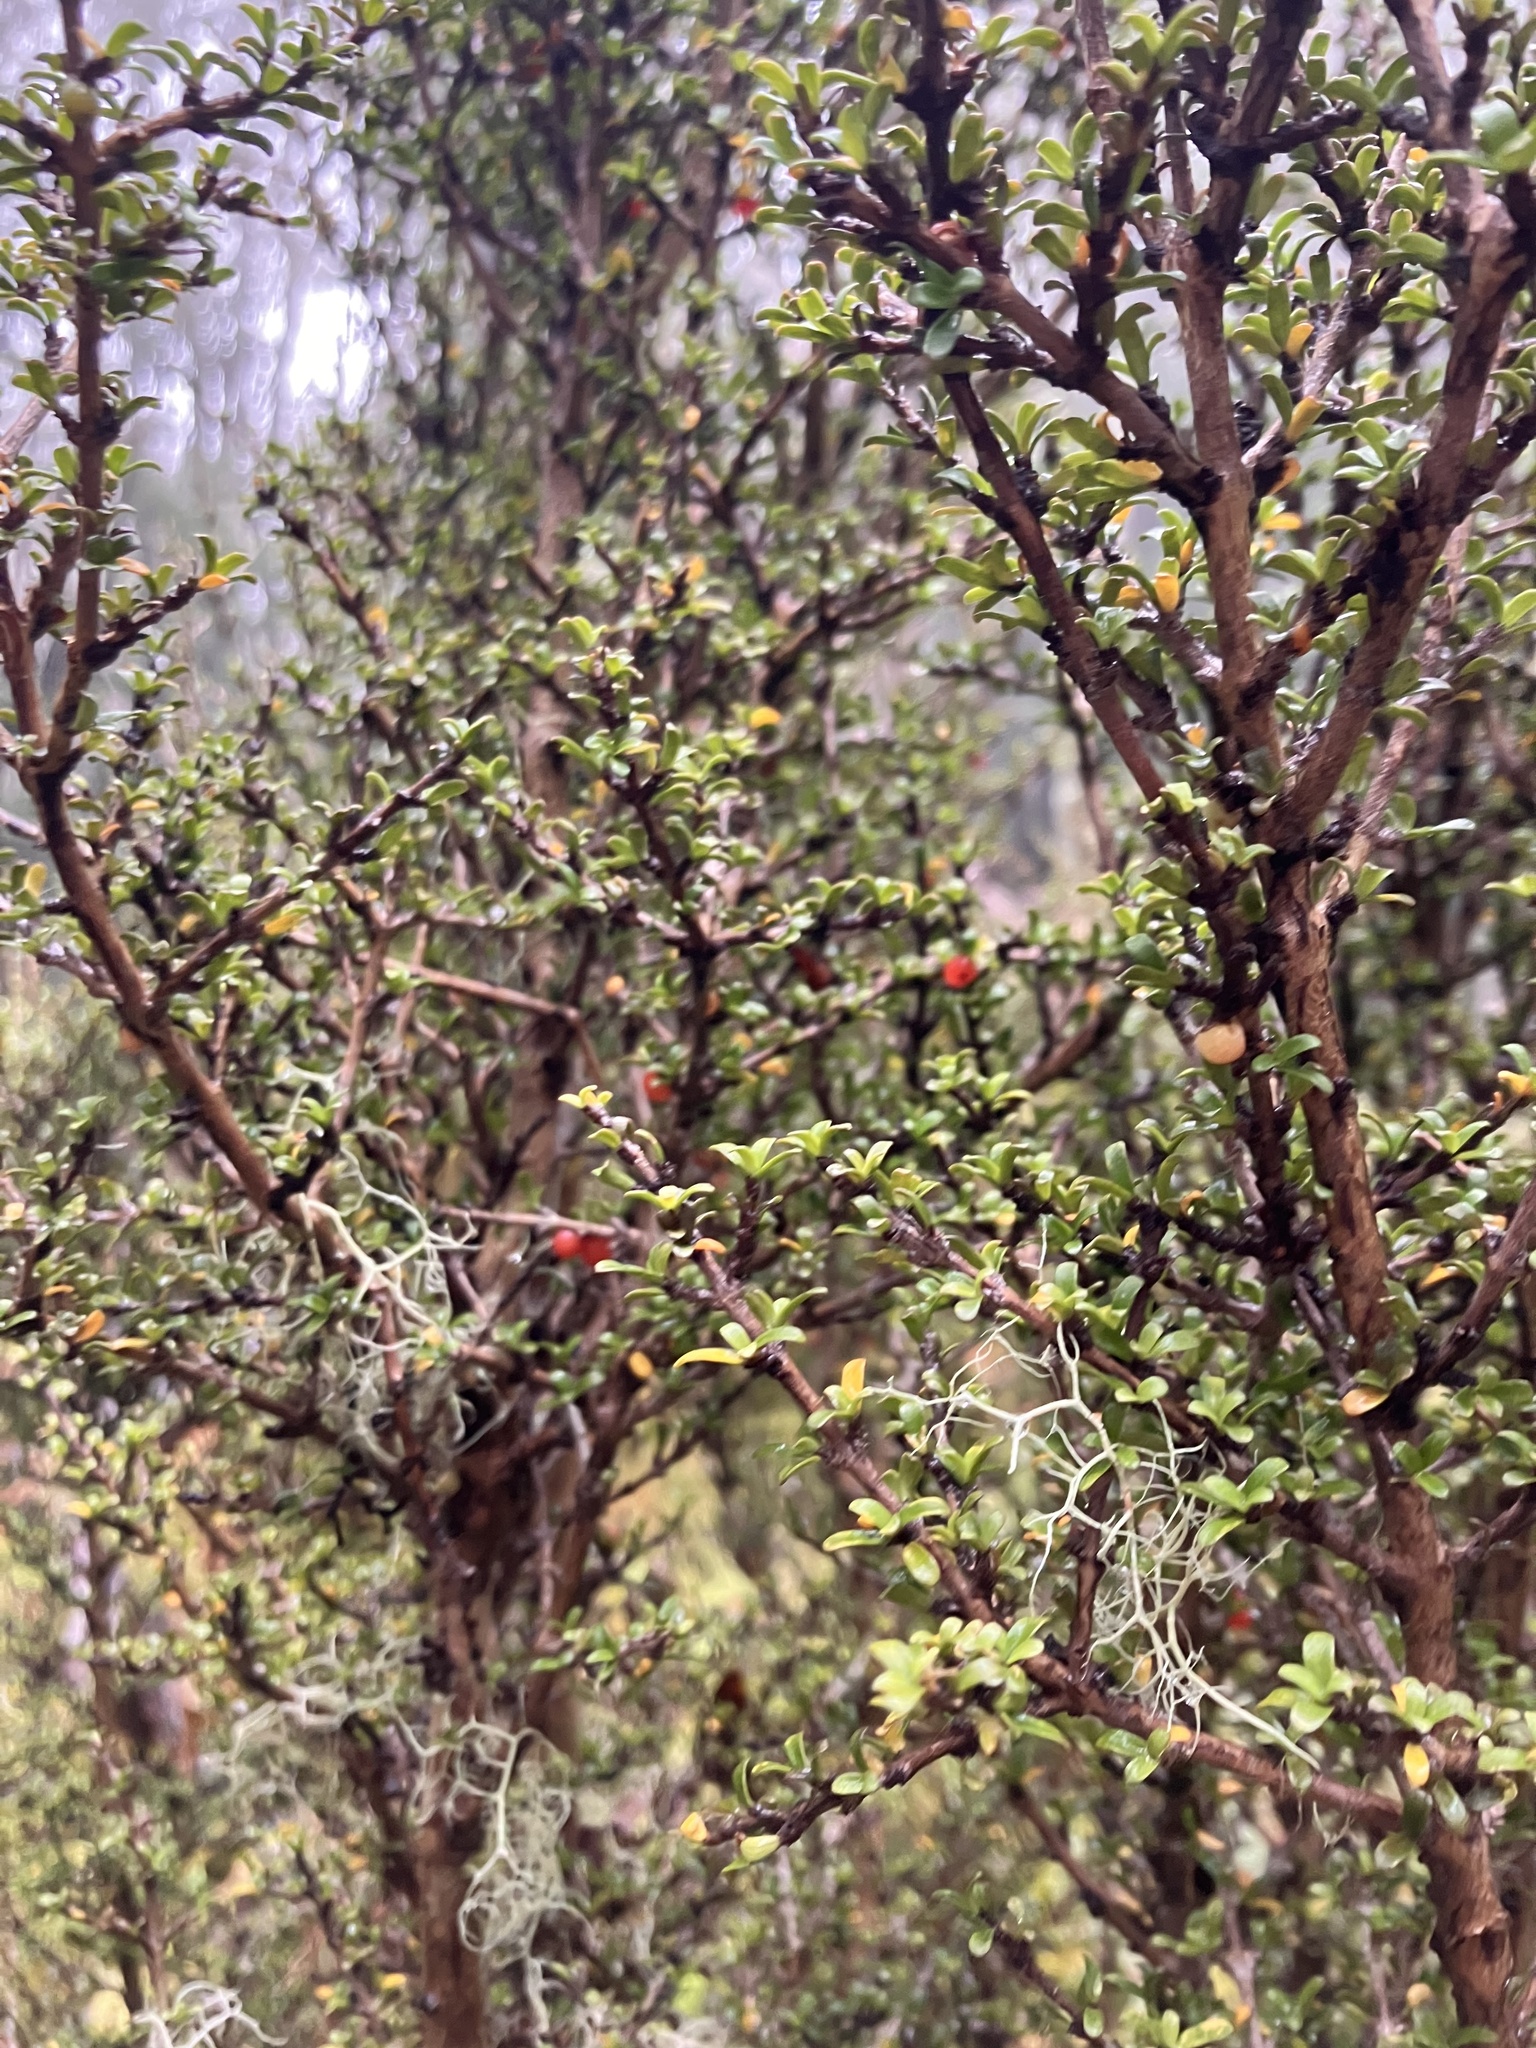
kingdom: Plantae
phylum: Tracheophyta
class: Magnoliopsida
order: Gentianales
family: Rubiaceae
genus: Coprosma
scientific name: Coprosma pseudocuneata
